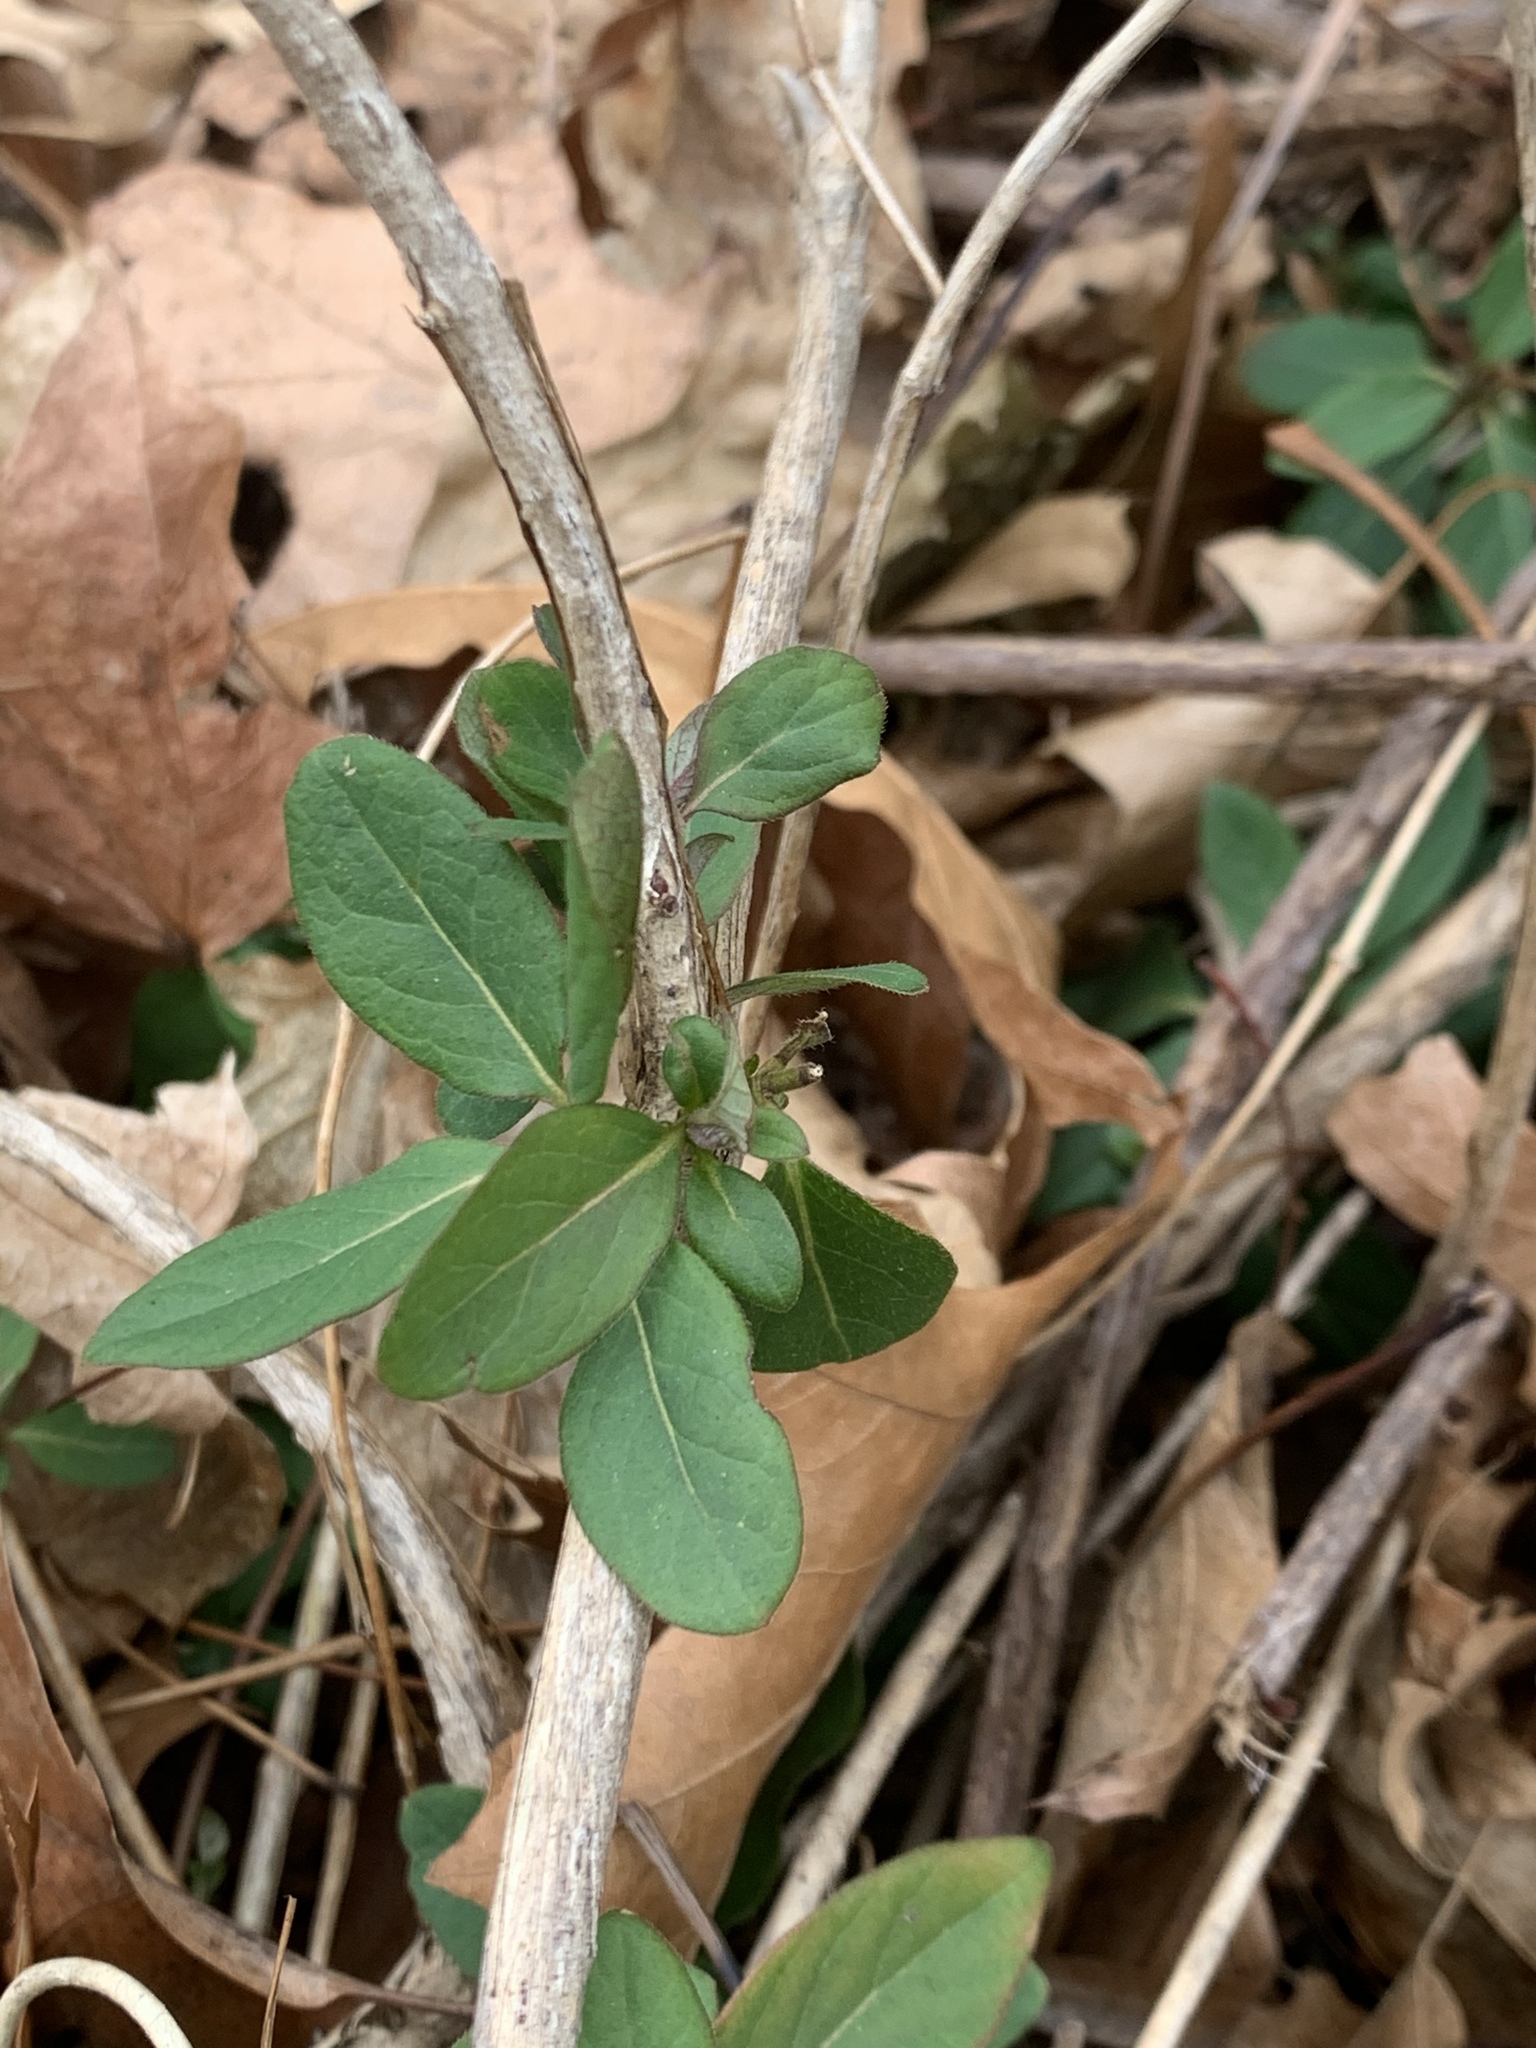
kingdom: Plantae
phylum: Tracheophyta
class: Magnoliopsida
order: Dipsacales
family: Caprifoliaceae
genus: Lonicera
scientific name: Lonicera japonica
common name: Japanese honeysuckle
